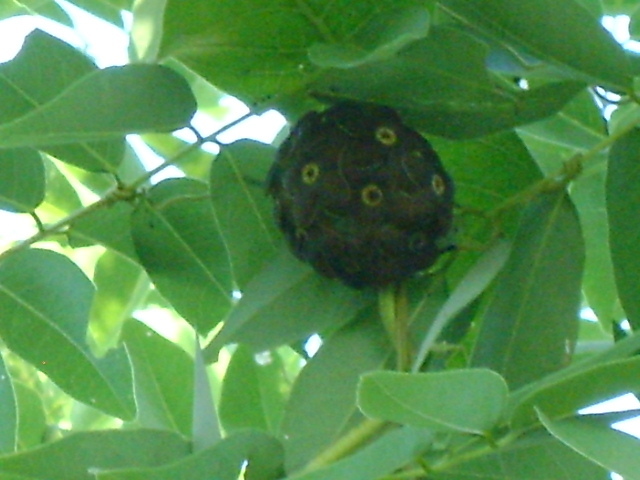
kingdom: Plantae
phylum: Tracheophyta
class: Magnoliopsida
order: Gentianales
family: Apocynaceae
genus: Macroscepis
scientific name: Macroscepis diademata
